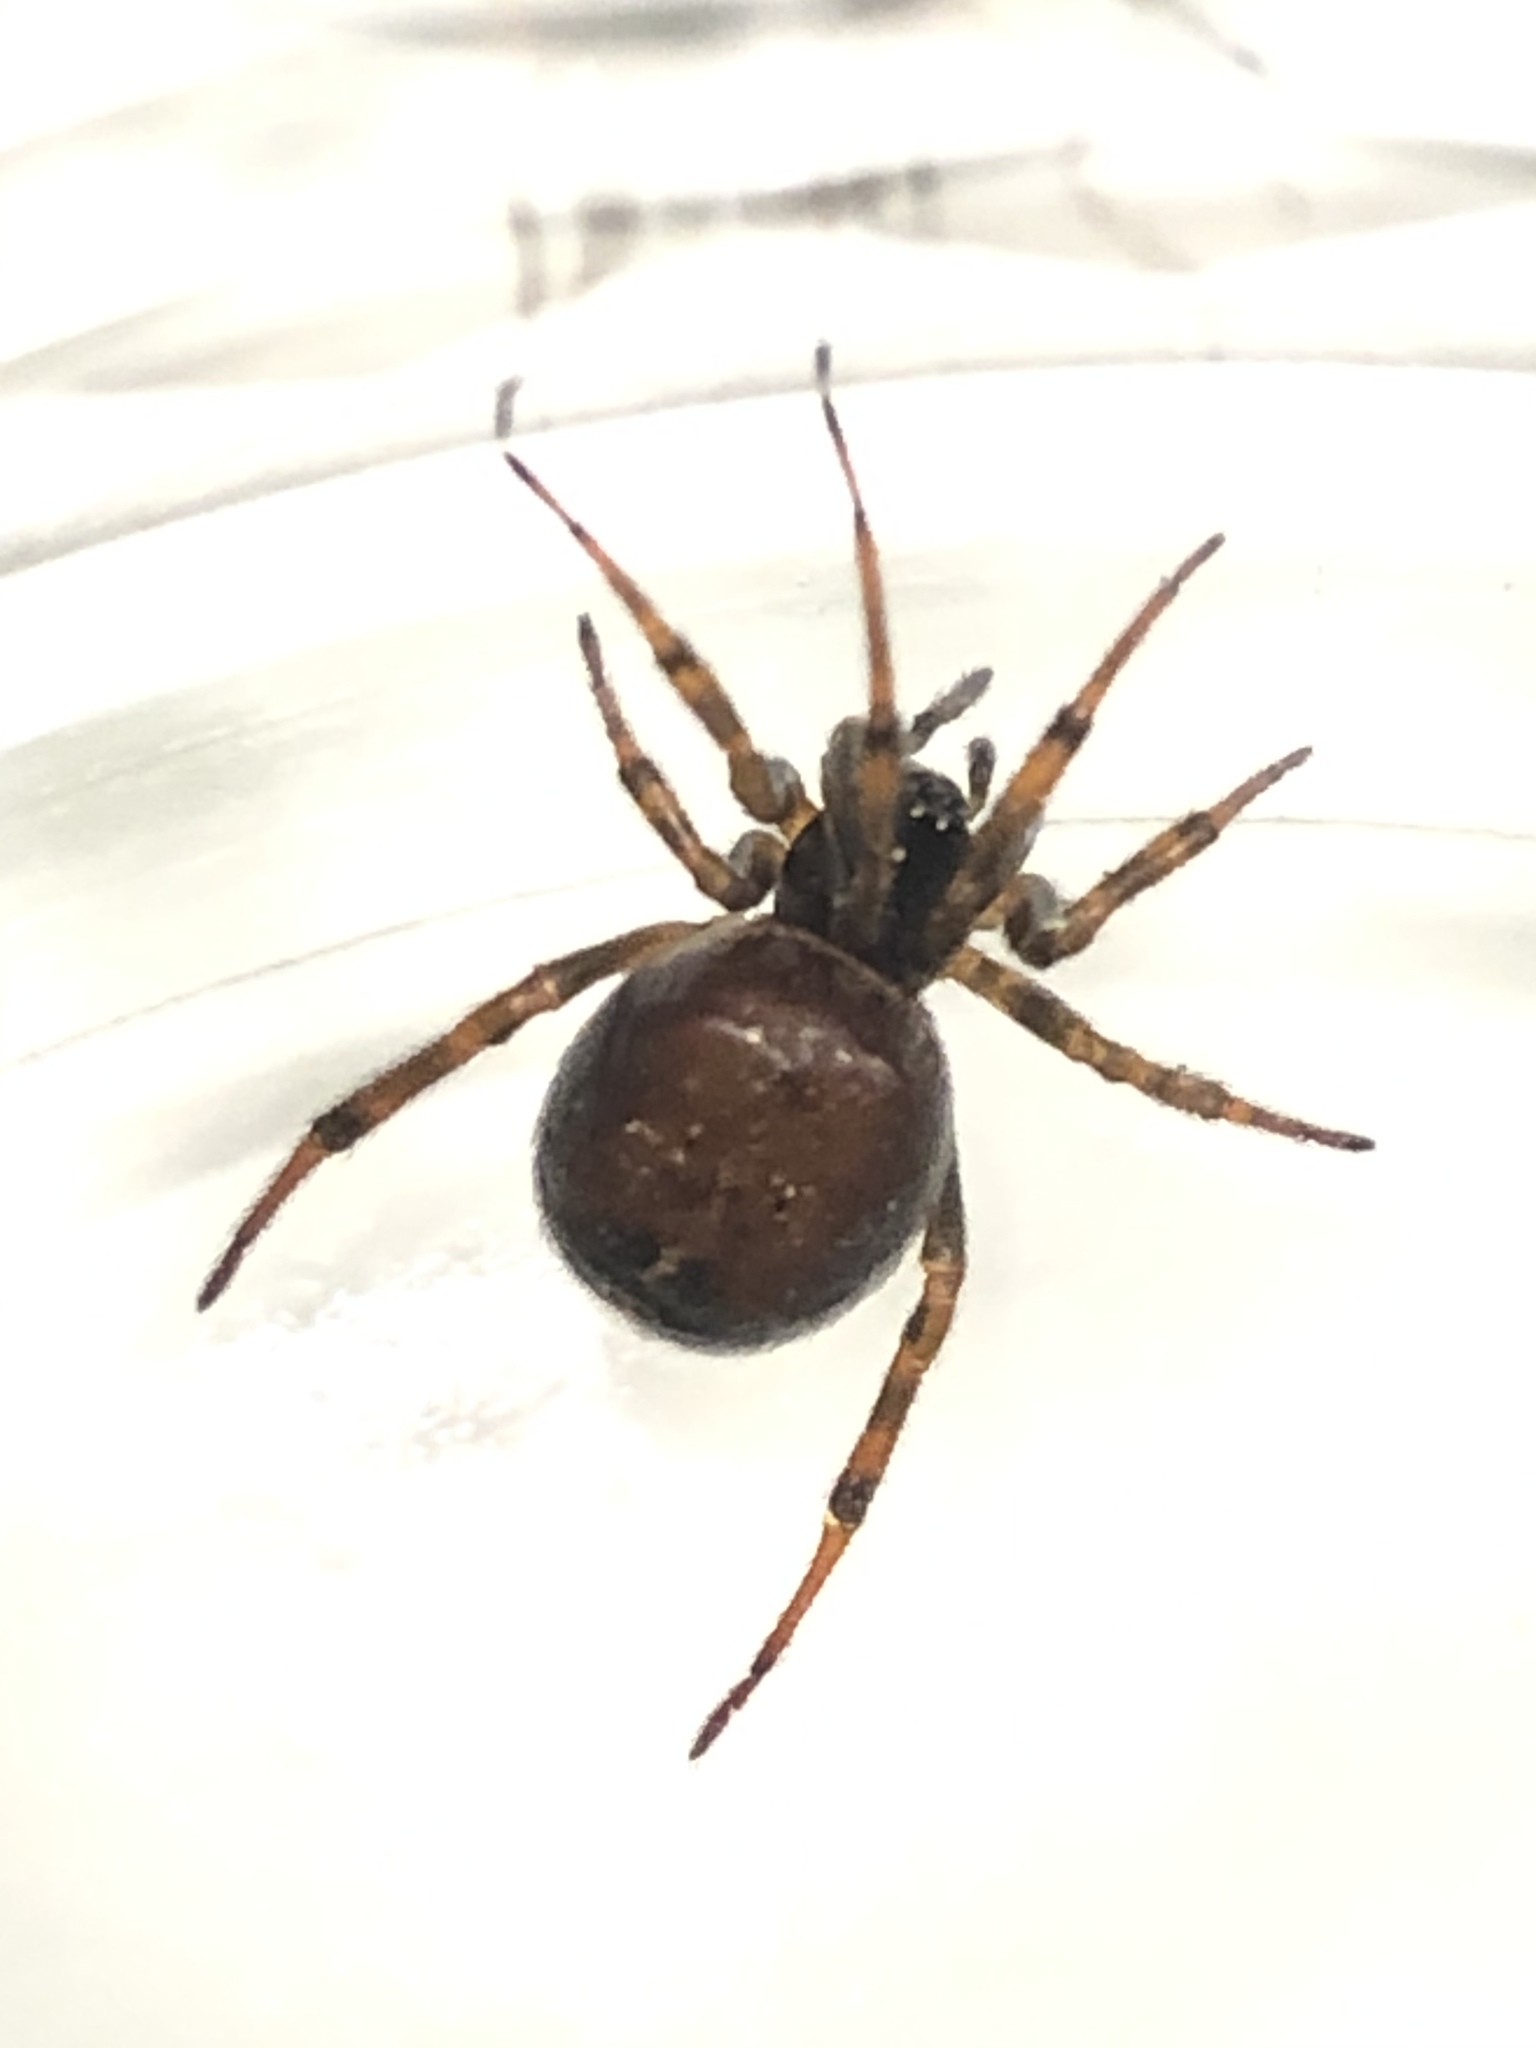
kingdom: Animalia
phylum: Arthropoda
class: Arachnida
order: Araneae
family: Theridiidae
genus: Steatoda
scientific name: Steatoda bipunctata
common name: False widow
